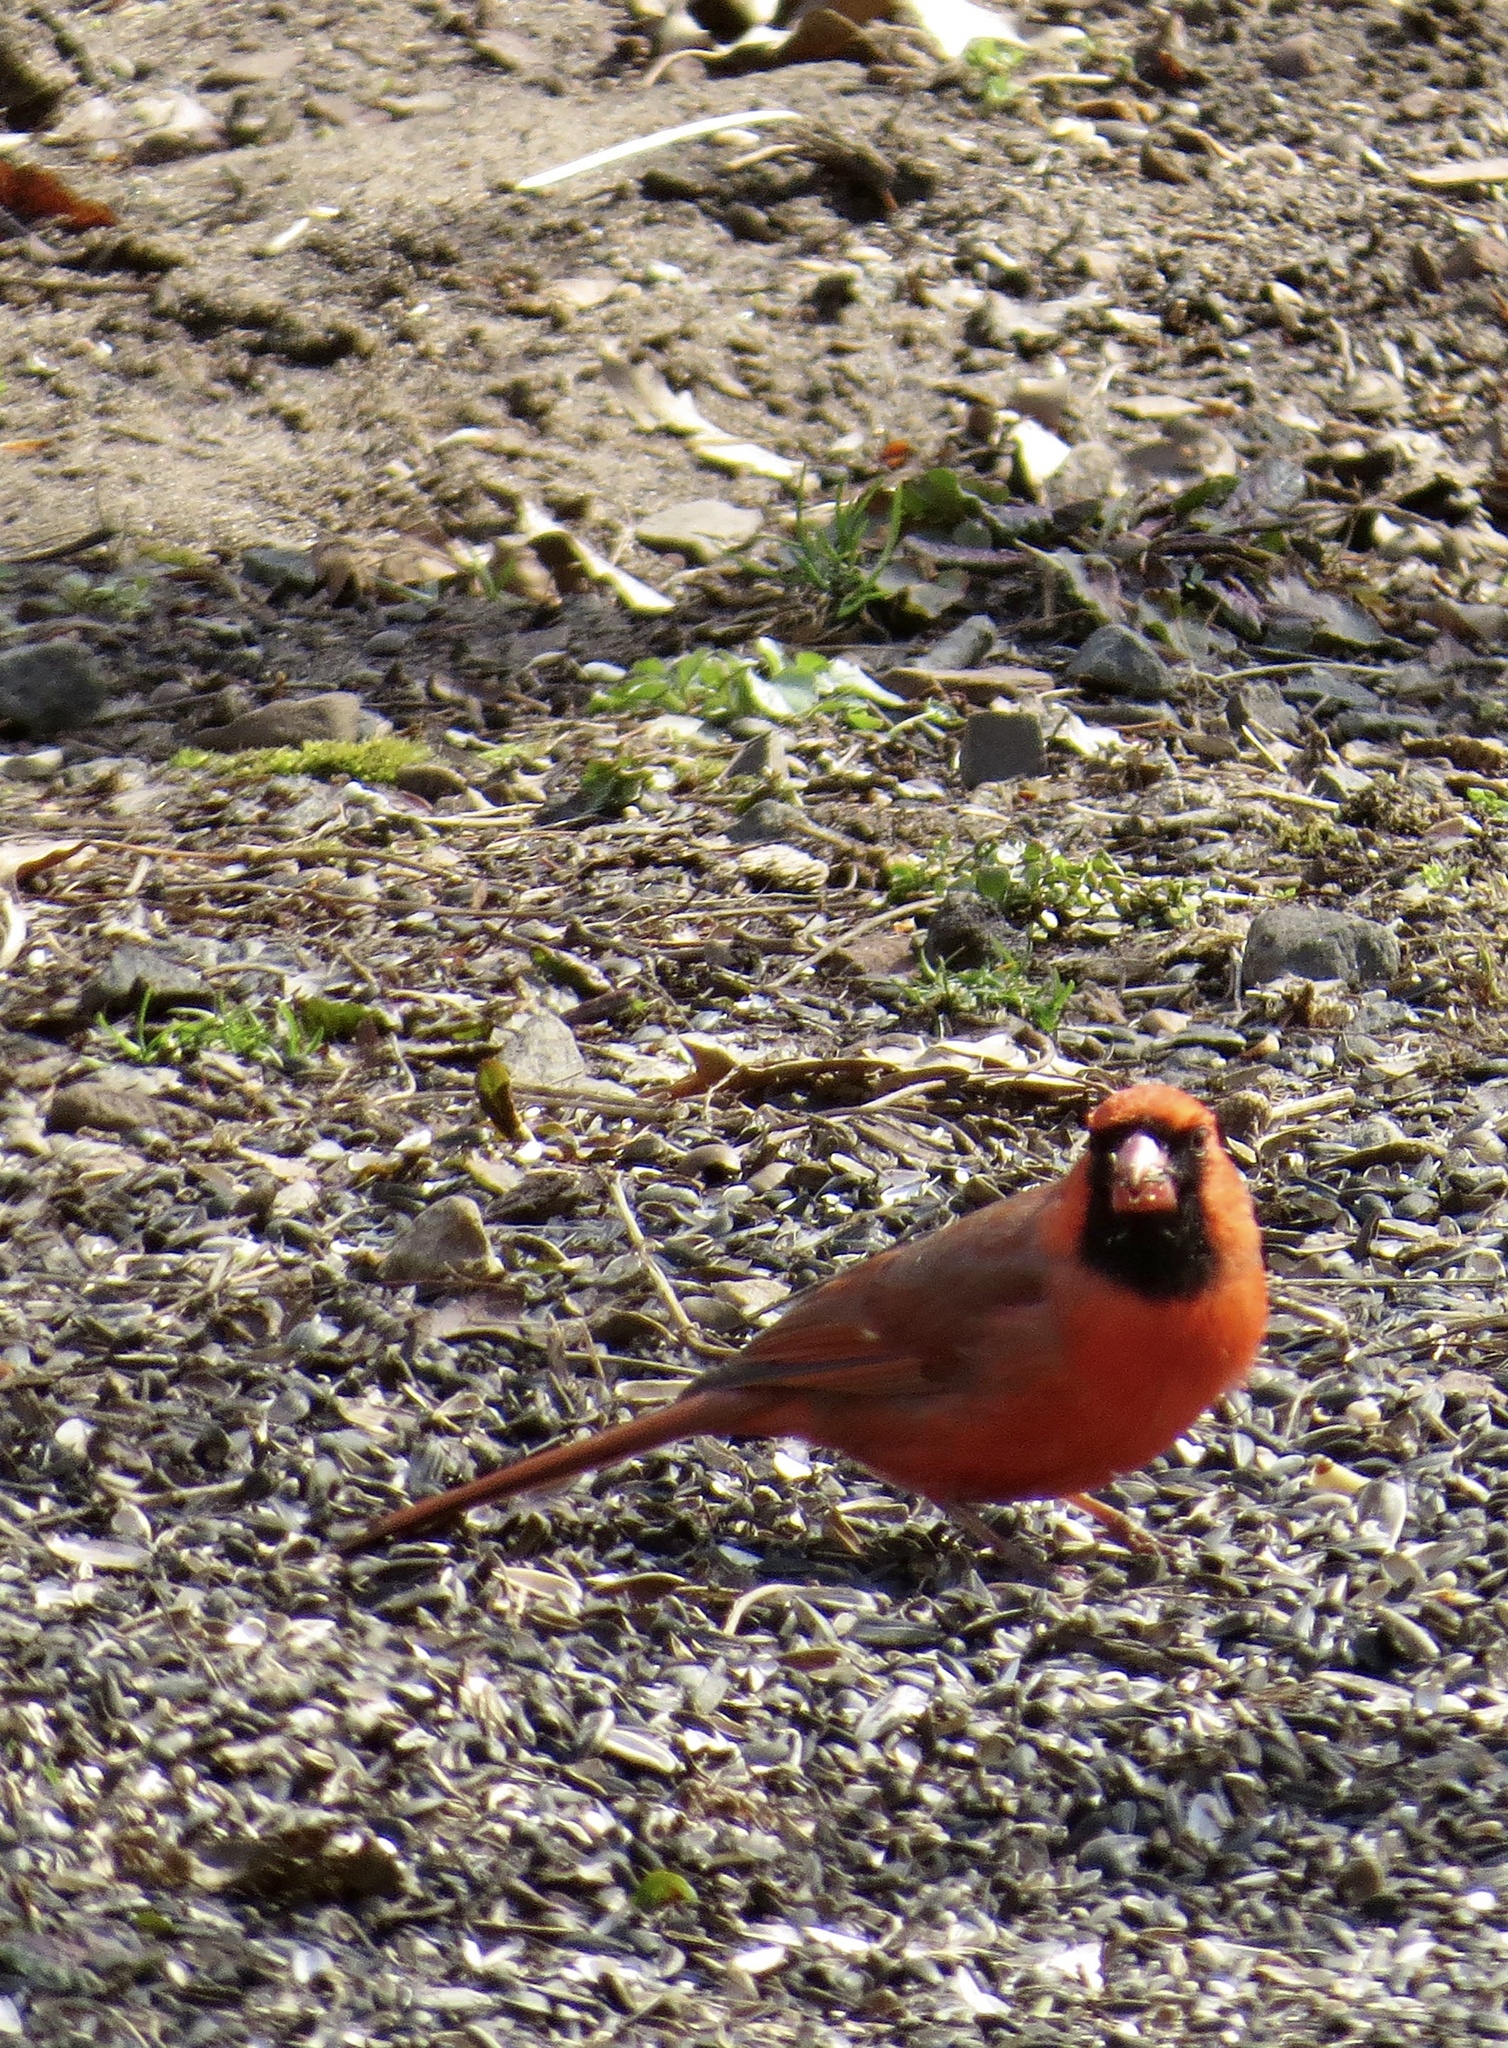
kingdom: Animalia
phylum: Chordata
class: Aves
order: Passeriformes
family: Cardinalidae
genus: Cardinalis
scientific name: Cardinalis cardinalis
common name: Northern cardinal
